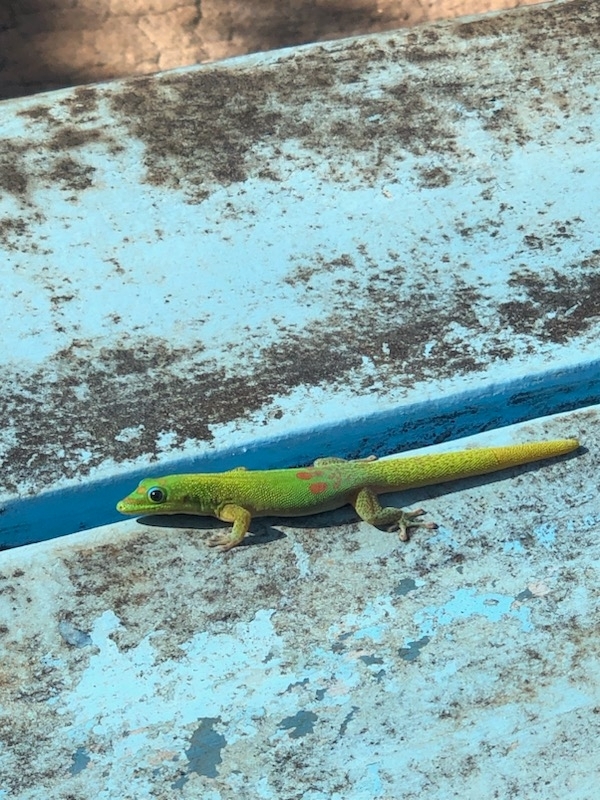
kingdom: Animalia
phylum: Chordata
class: Squamata
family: Gekkonidae
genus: Phelsuma
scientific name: Phelsuma laticauda
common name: Gold dust day gecko
